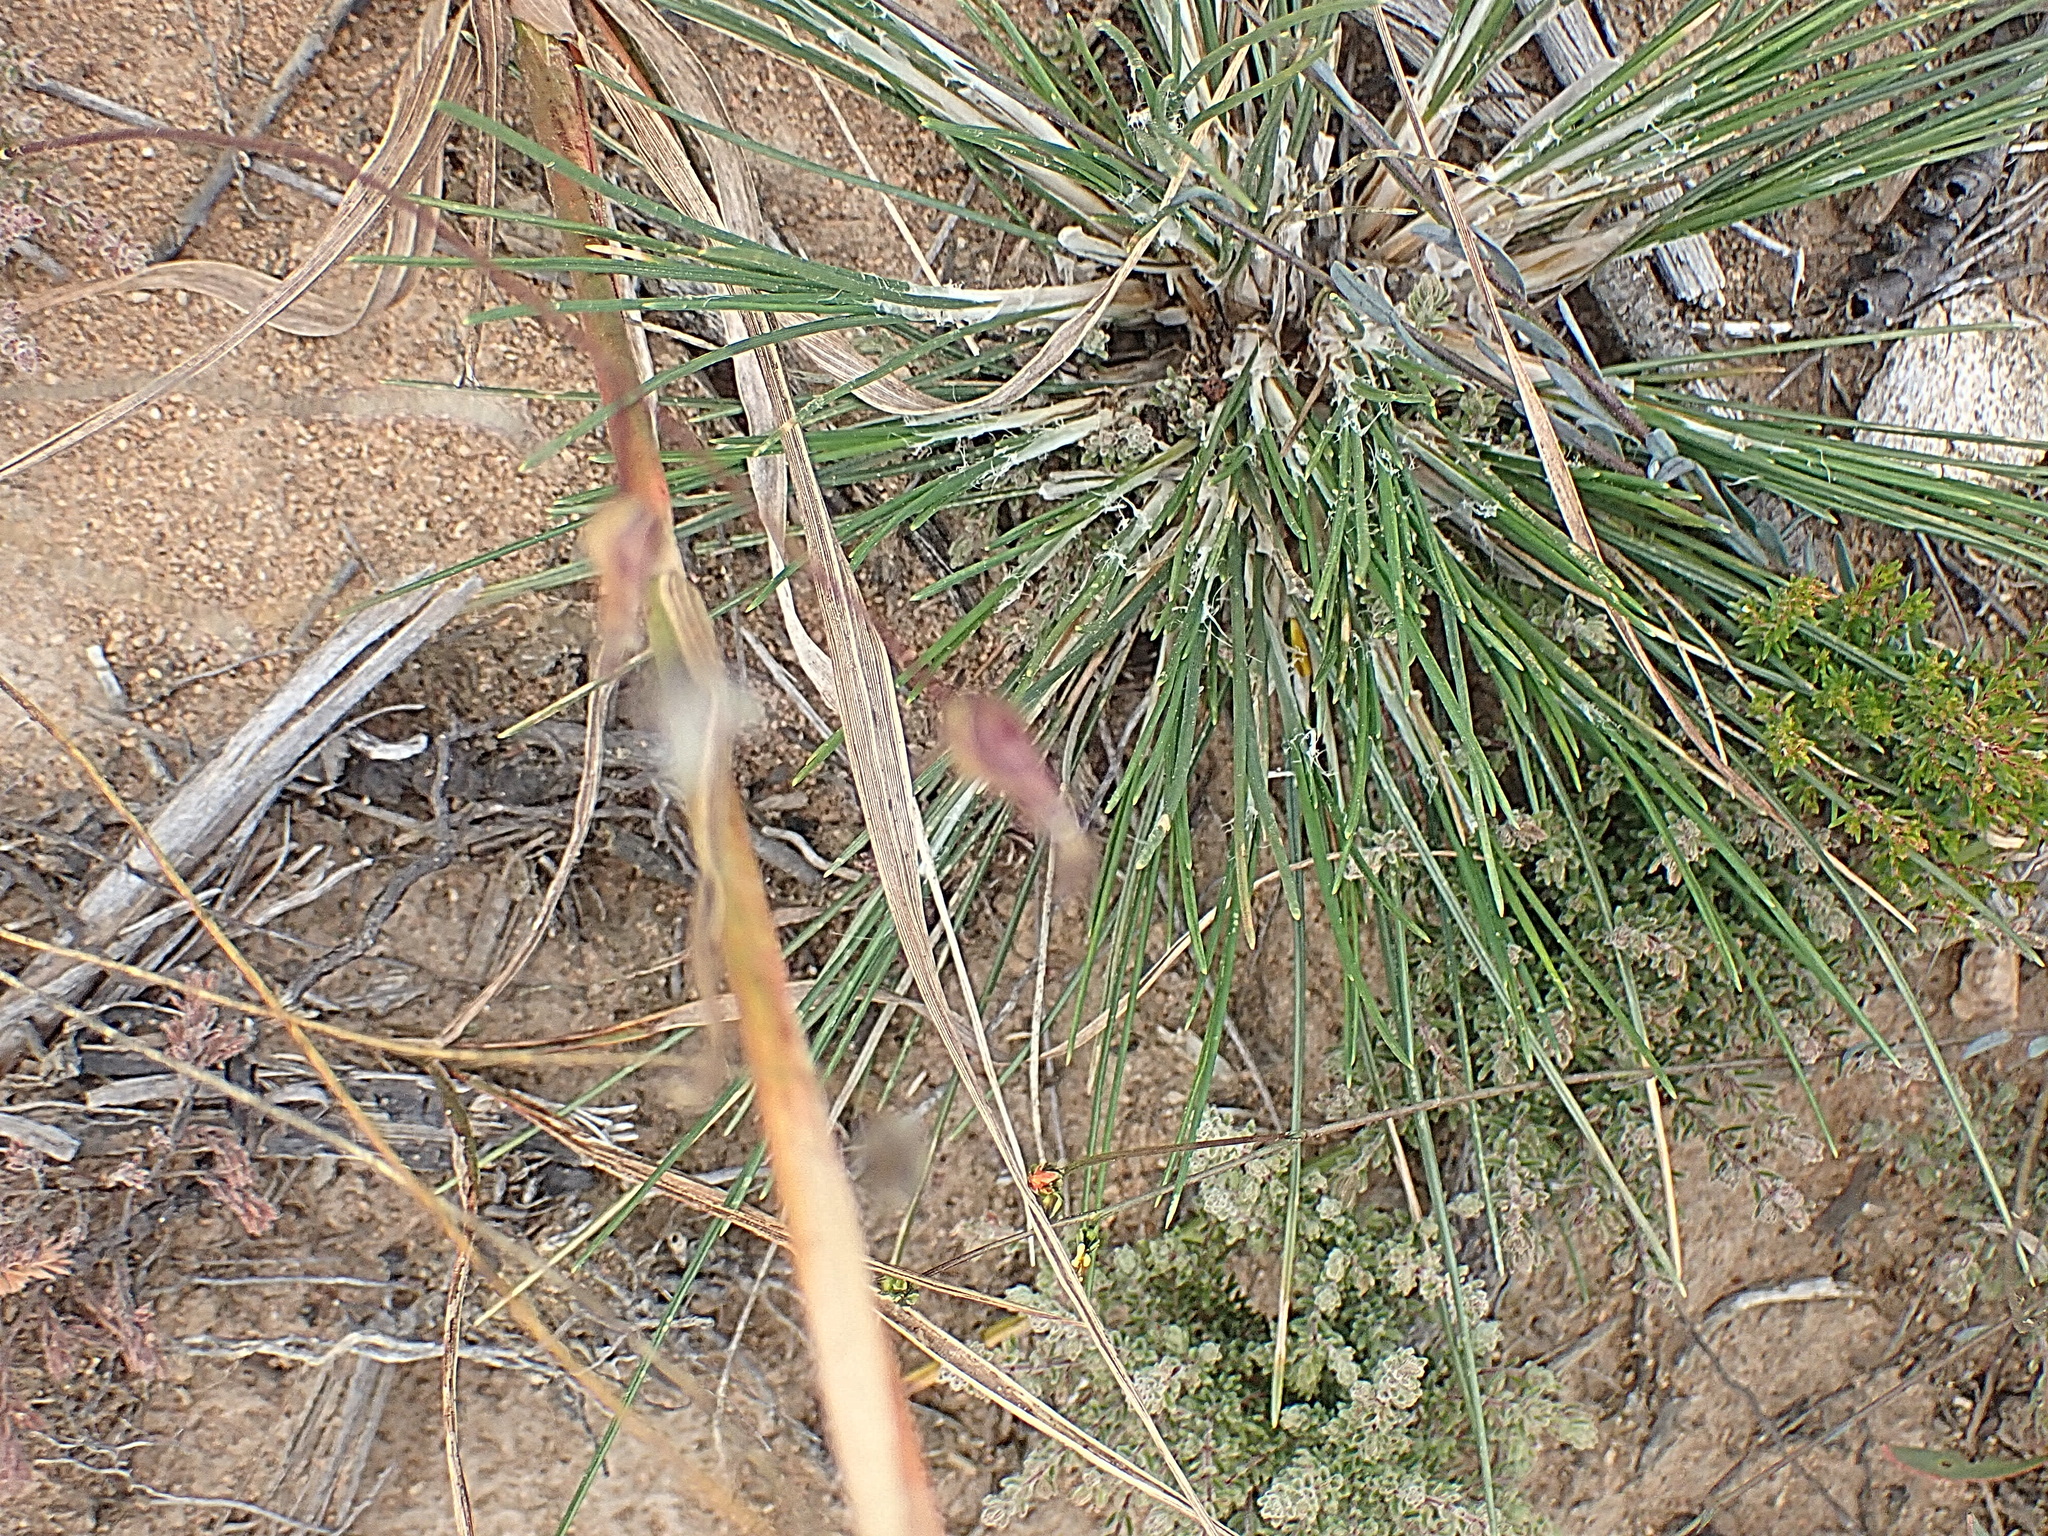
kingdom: Plantae
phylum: Tracheophyta
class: Liliopsida
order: Poales
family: Poaceae
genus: Ehrharta
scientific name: Ehrharta capensis
